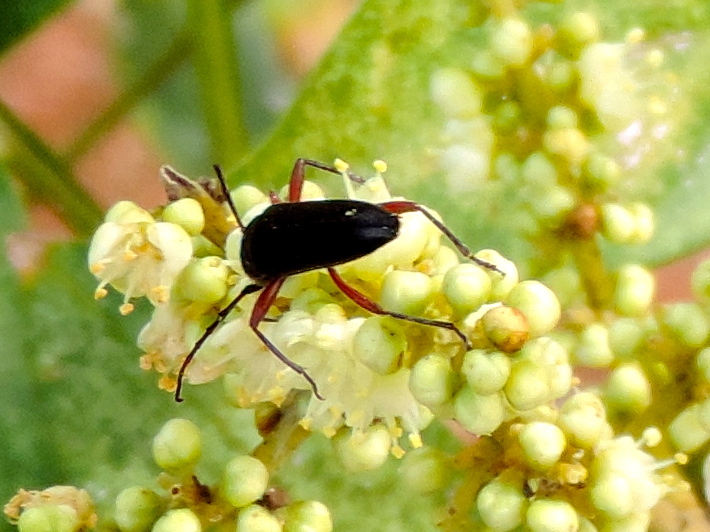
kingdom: Animalia
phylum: Arthropoda
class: Insecta
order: Coleoptera
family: Cerambycidae
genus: Stenosphenus
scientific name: Stenosphenus
